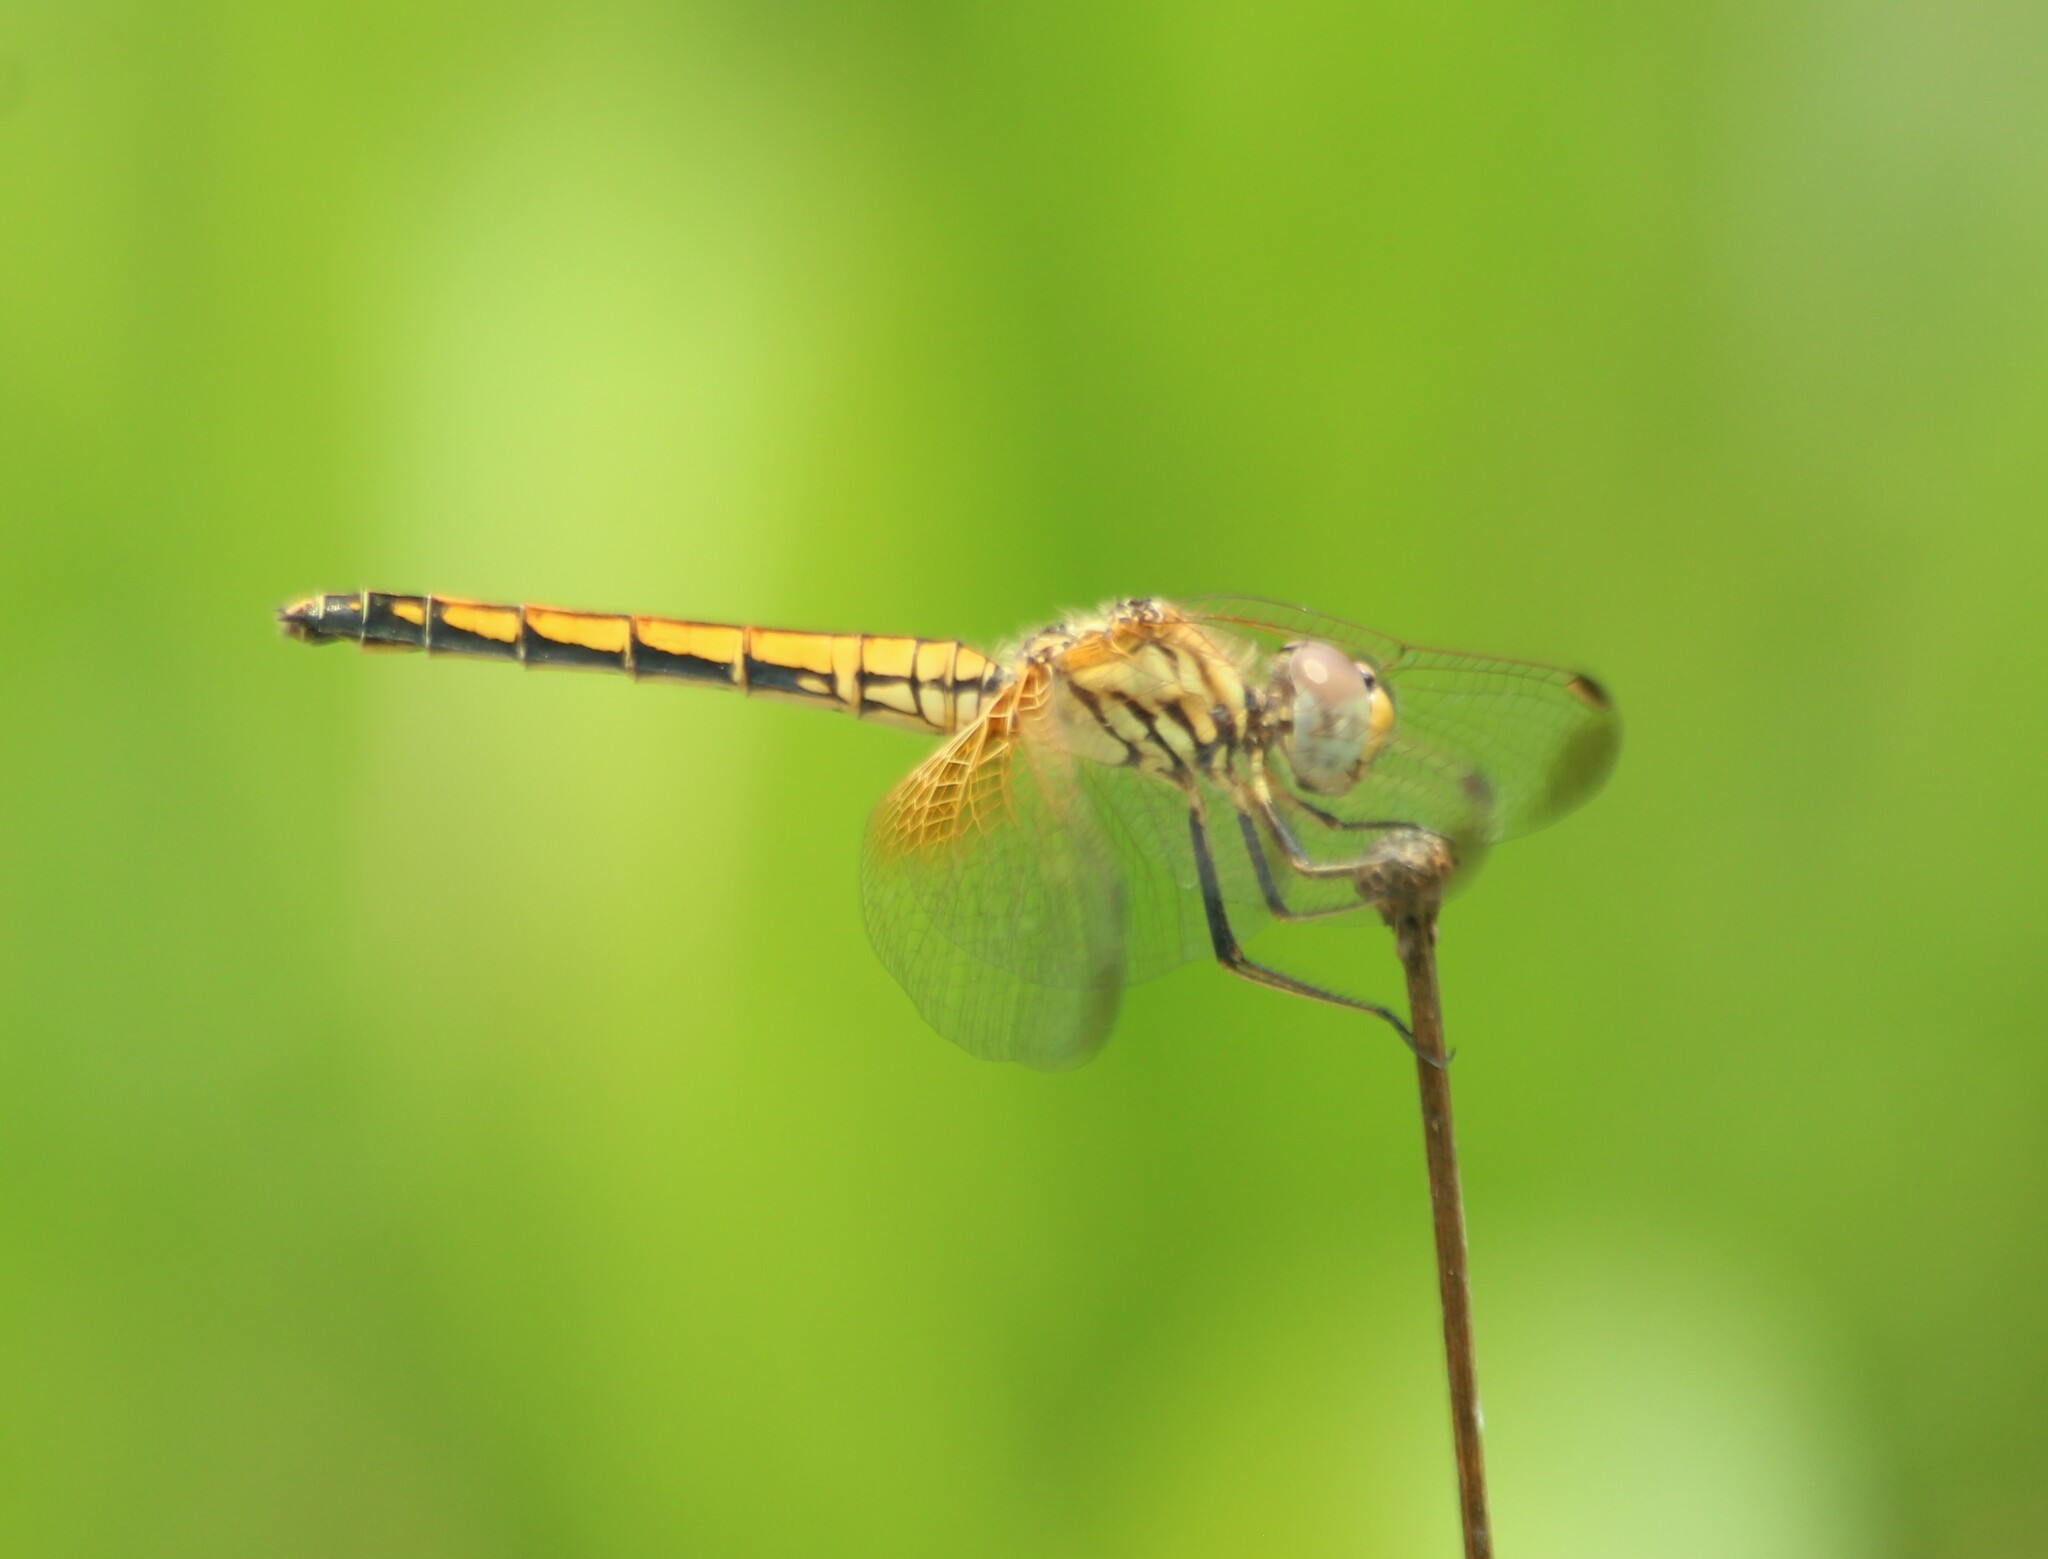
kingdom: Animalia
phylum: Arthropoda
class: Insecta
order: Odonata
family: Libellulidae
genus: Trithemis
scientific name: Trithemis aurora
